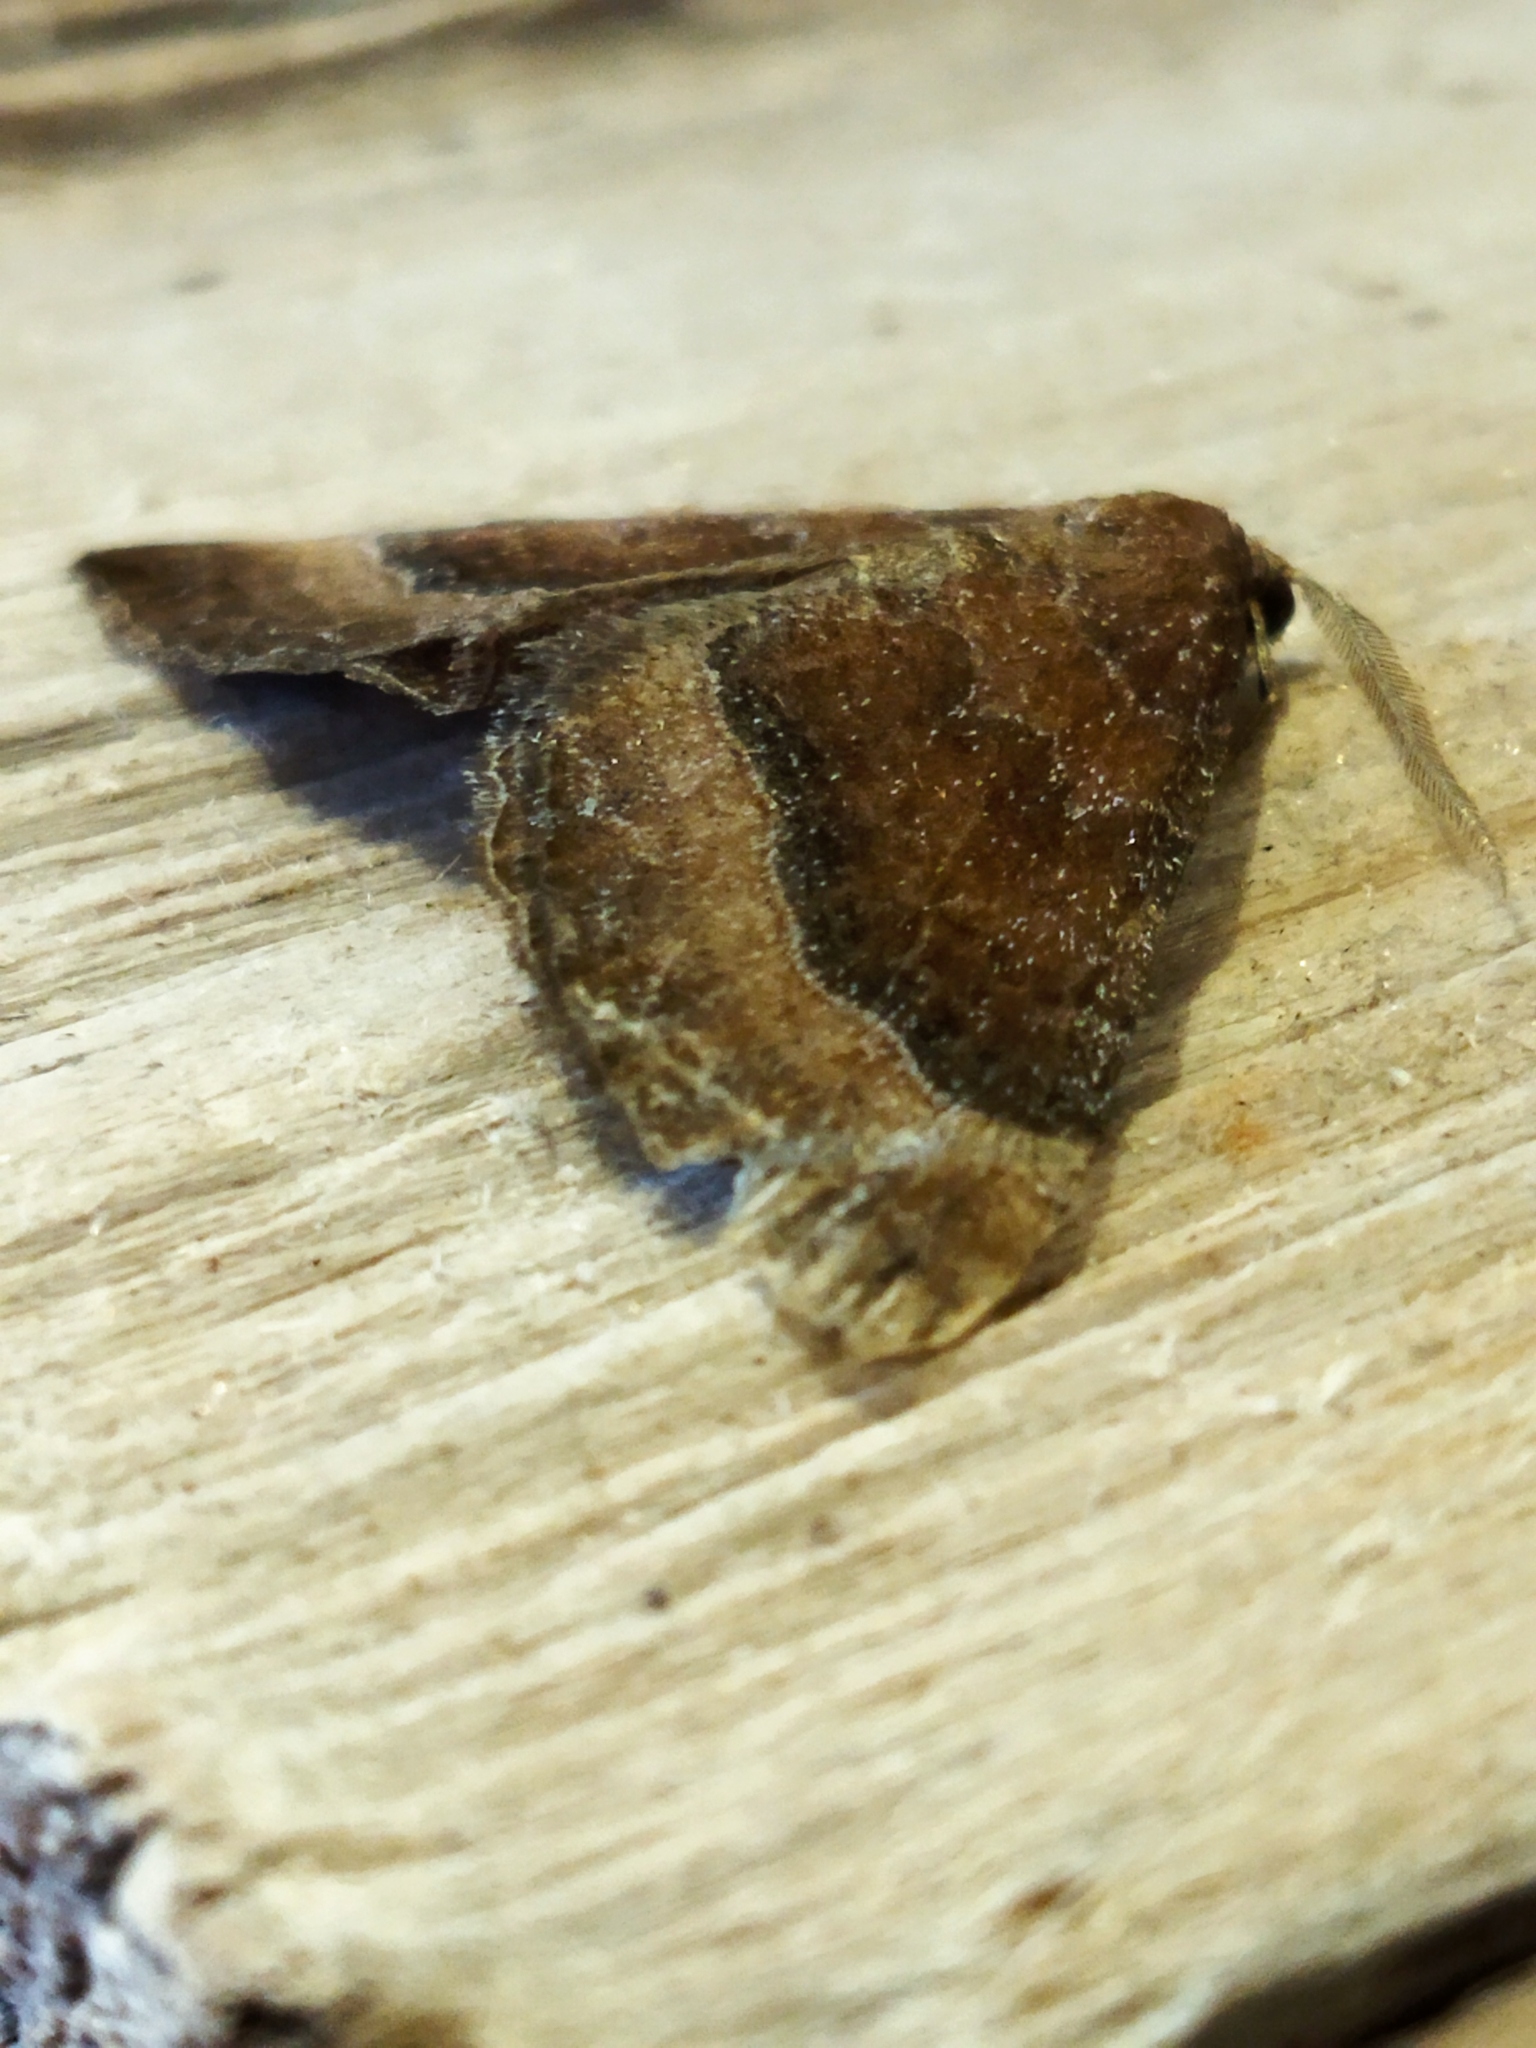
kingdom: Animalia
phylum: Arthropoda
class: Insecta
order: Lepidoptera
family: Geometridae
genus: Larentia
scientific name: Larentia clavaria
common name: Mallow
